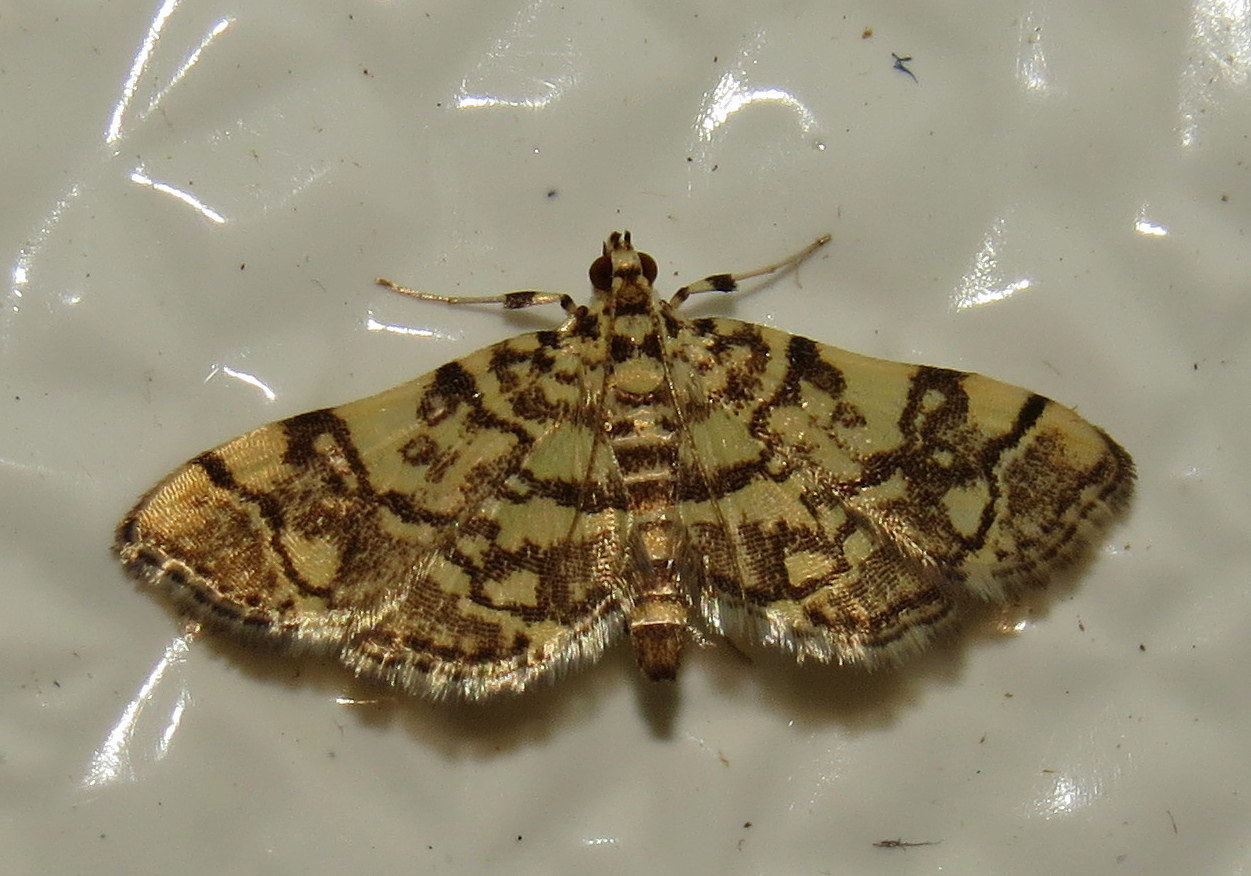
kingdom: Animalia
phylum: Arthropoda
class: Insecta
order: Lepidoptera
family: Crambidae
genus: Apogeshna
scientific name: Apogeshna stenialis
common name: Checkered apogeshna moth
